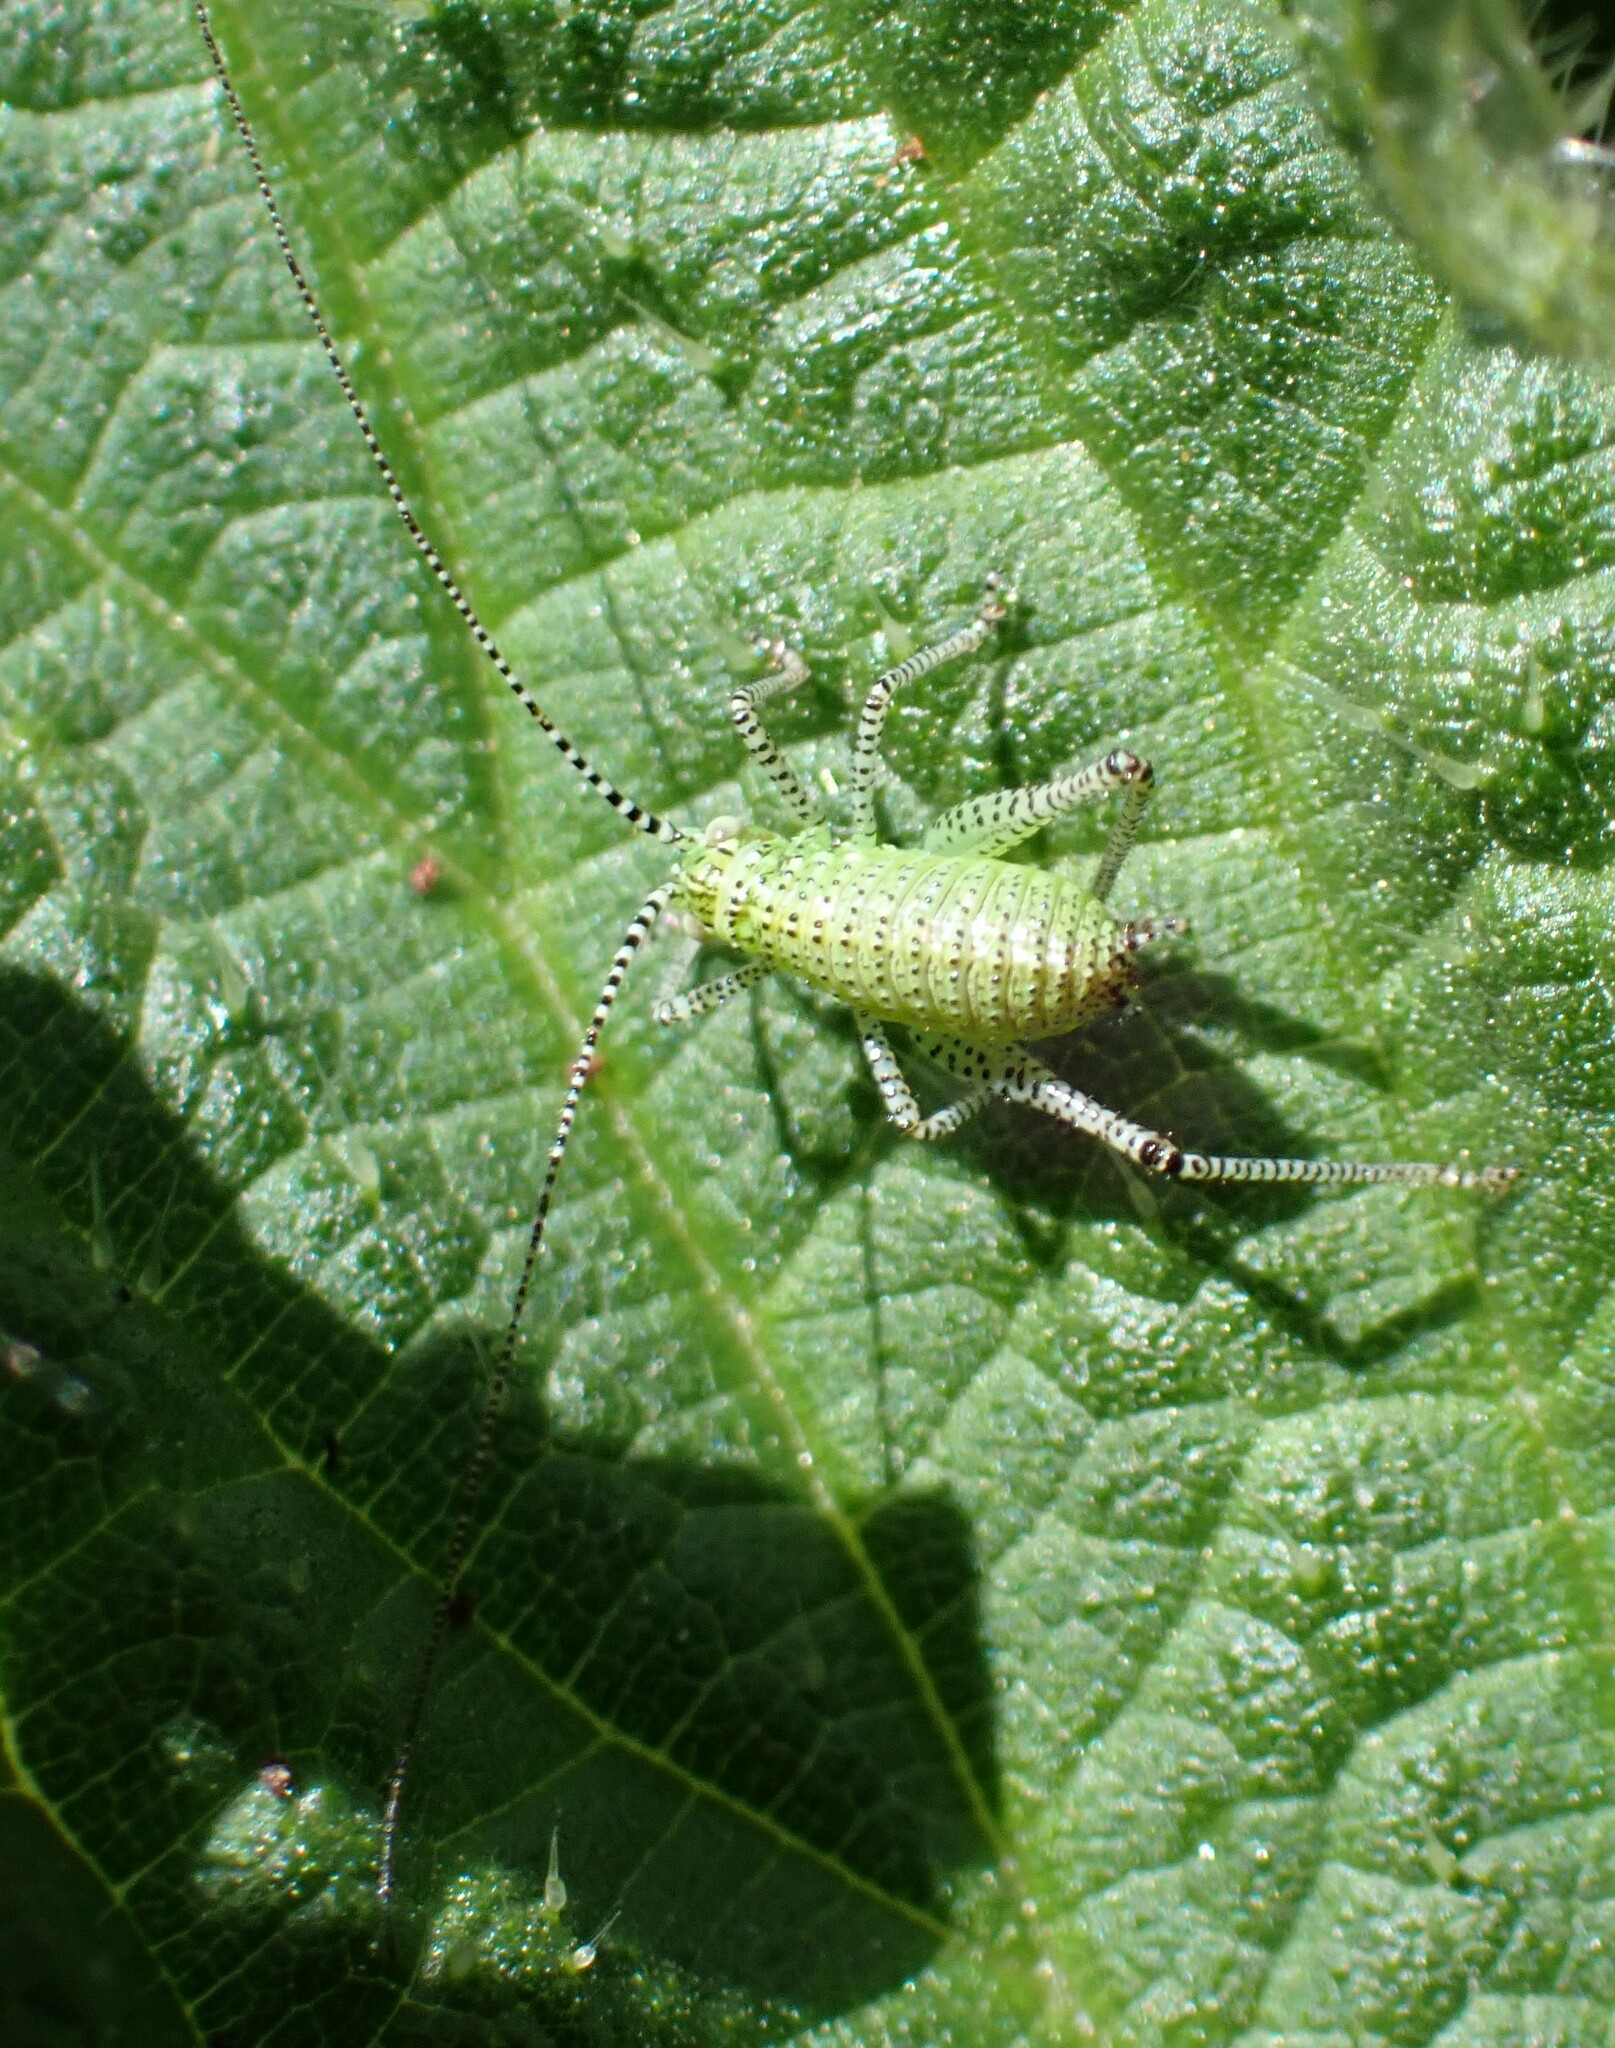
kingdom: Animalia
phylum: Arthropoda
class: Insecta
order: Orthoptera
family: Tettigoniidae
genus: Leptophyes
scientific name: Leptophyes punctatissima
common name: Speckled bush-cricket
